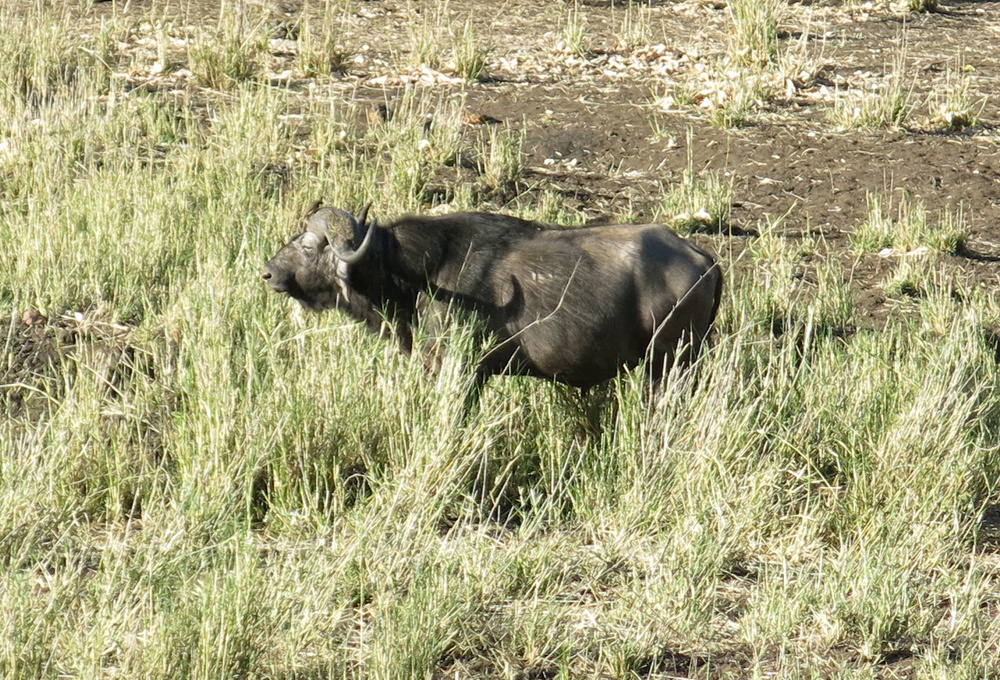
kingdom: Animalia
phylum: Chordata
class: Mammalia
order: Artiodactyla
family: Bovidae
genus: Syncerus
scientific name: Syncerus caffer
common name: African buffalo
